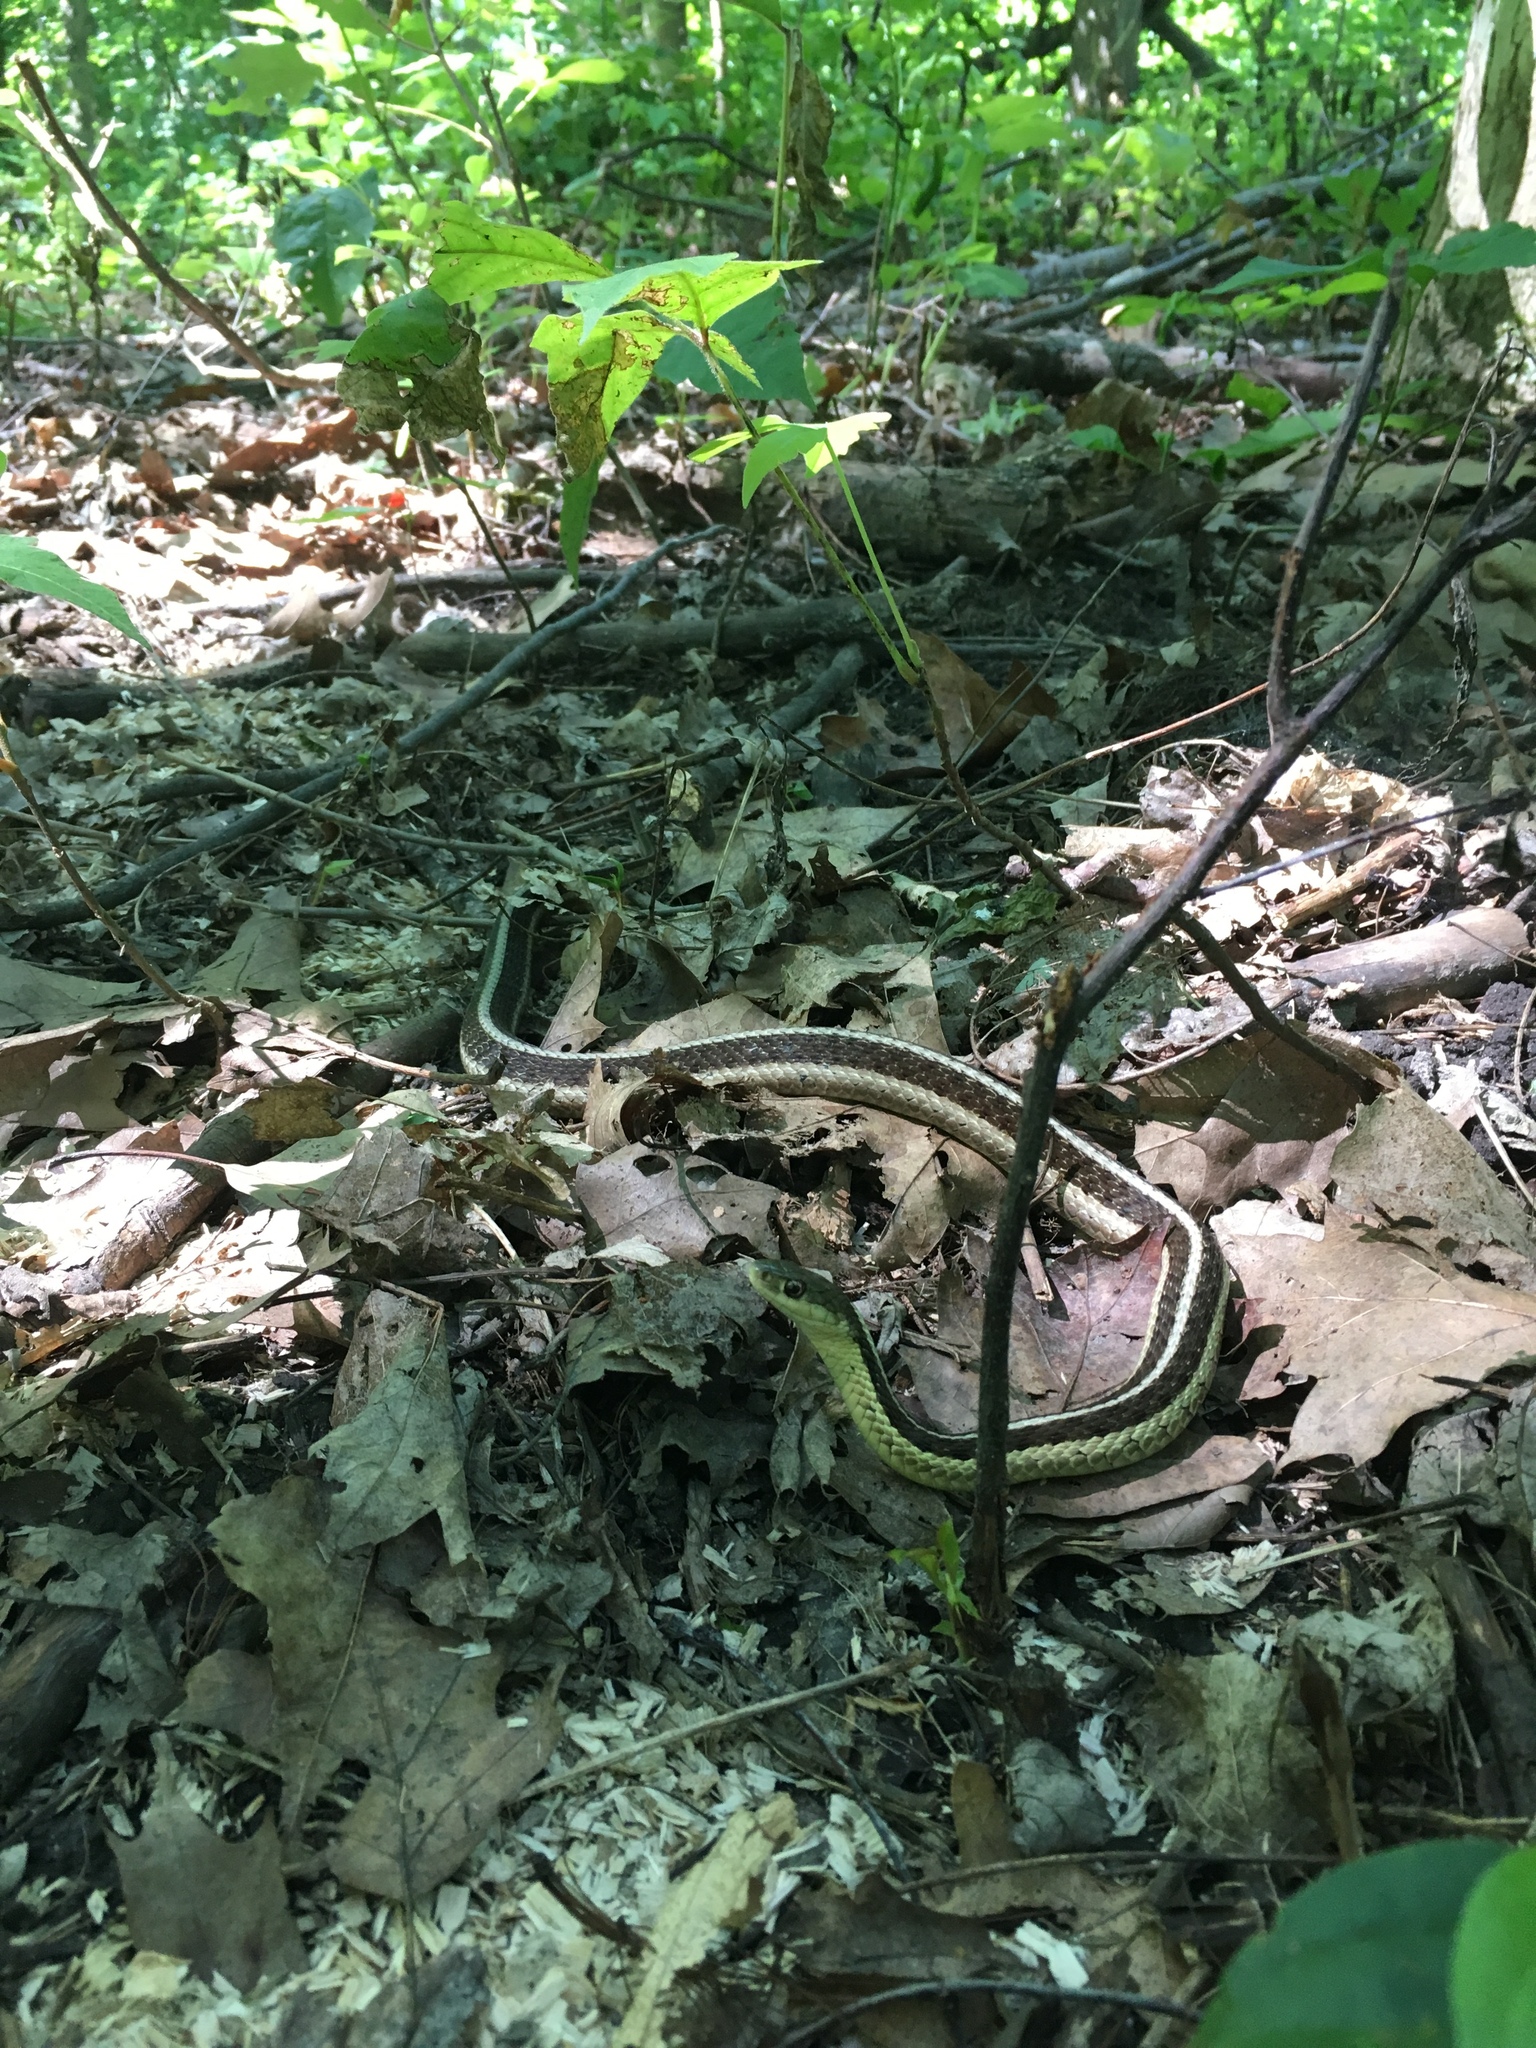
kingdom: Animalia
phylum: Chordata
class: Squamata
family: Colubridae
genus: Thamnophis
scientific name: Thamnophis sirtalis
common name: Common garter snake
